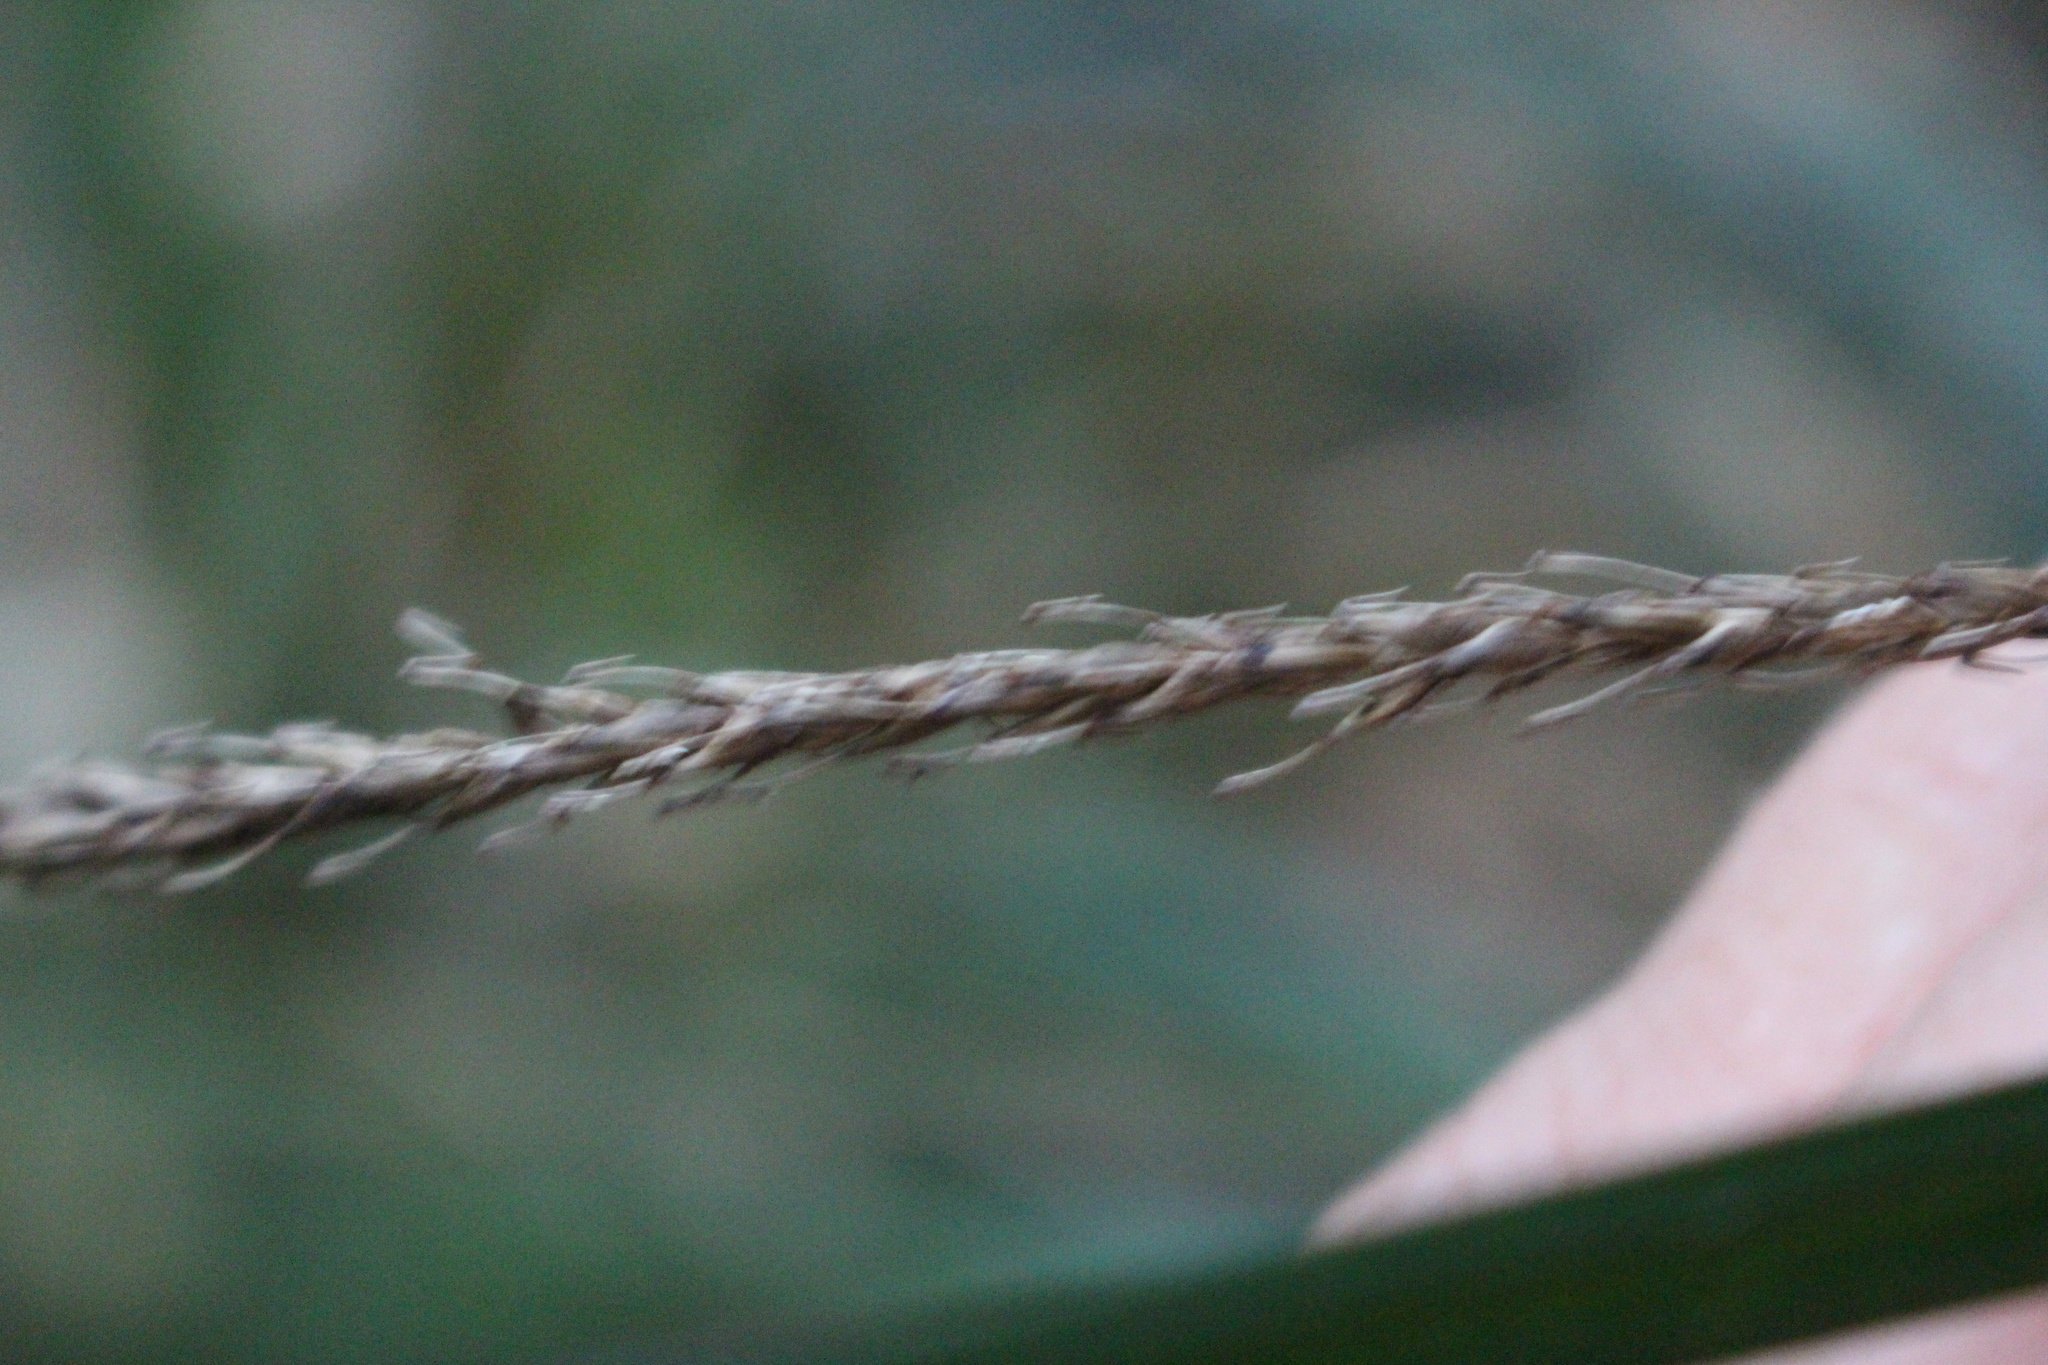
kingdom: Plantae
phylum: Tracheophyta
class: Liliopsida
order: Poales
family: Cyperaceae
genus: Carex
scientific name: Carex uncinata
